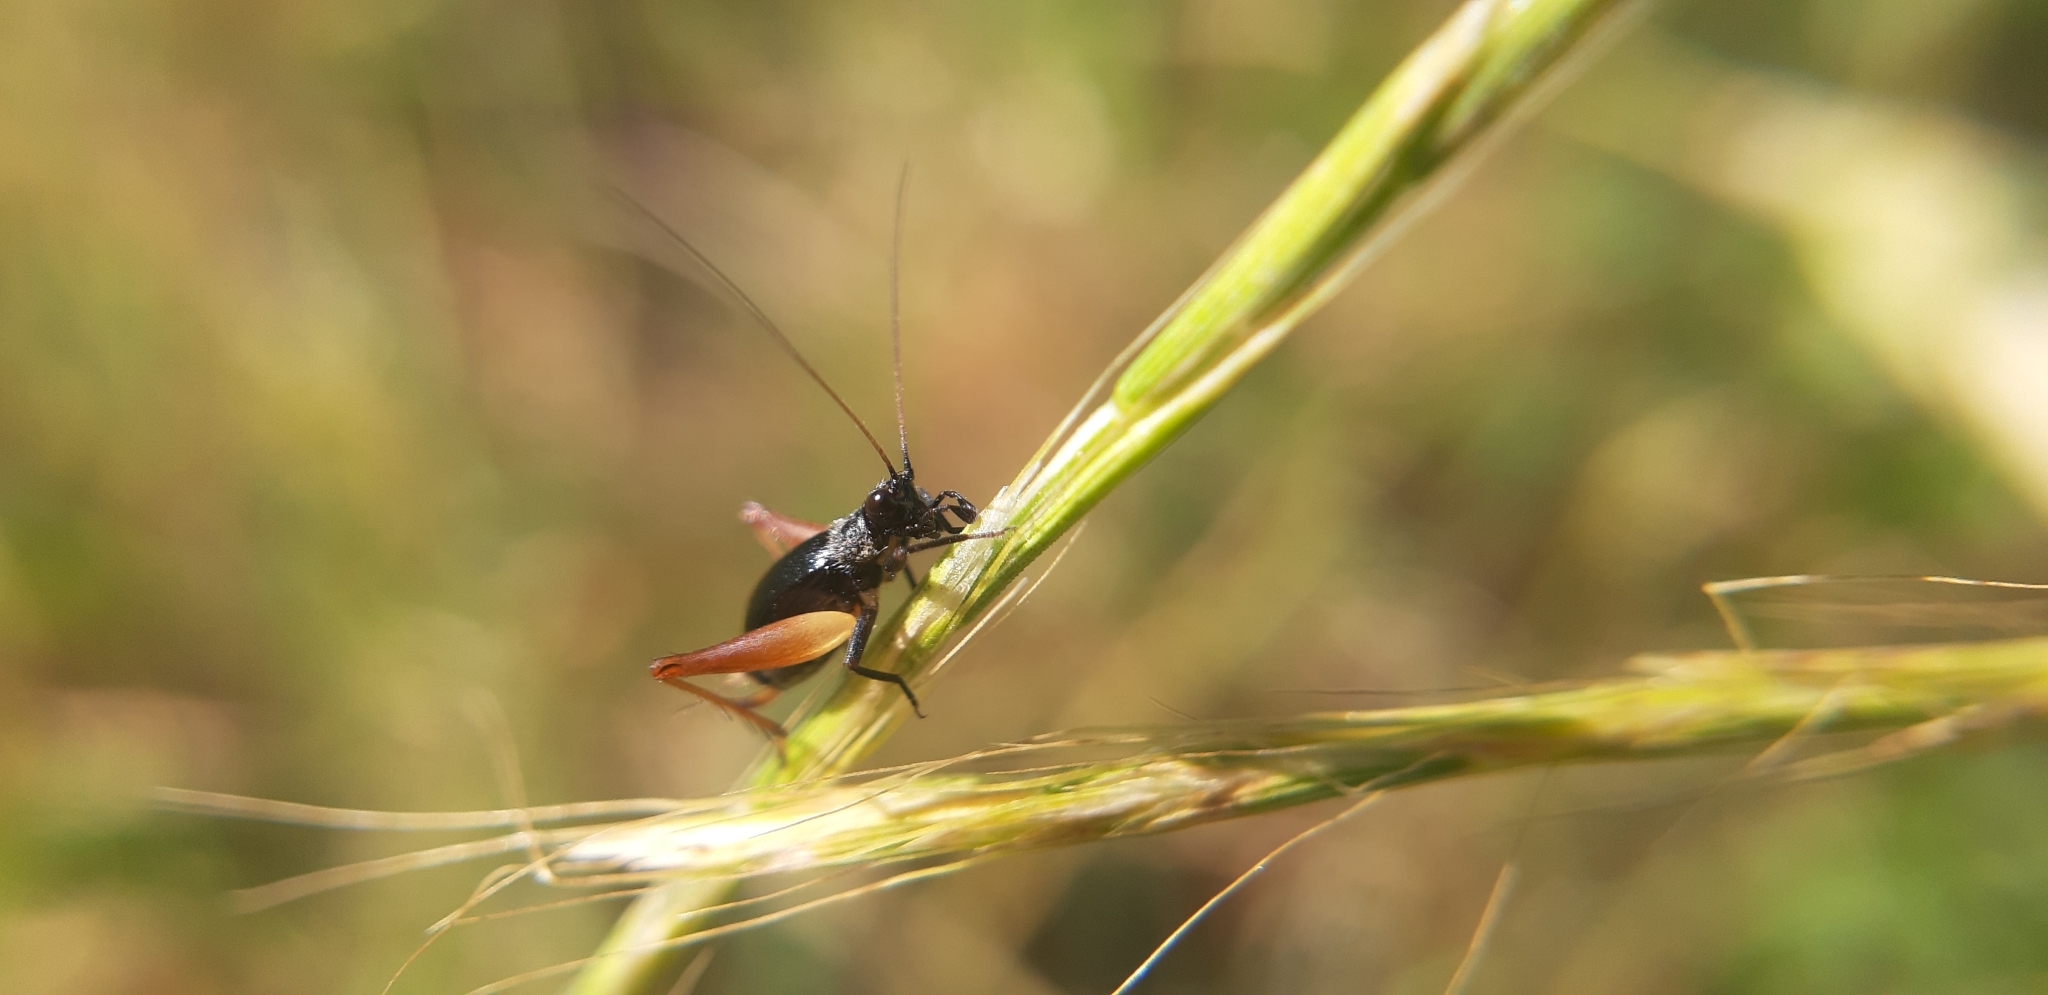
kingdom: Animalia
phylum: Arthropoda
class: Insecta
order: Orthoptera
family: Trigonidiidae
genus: Trigonidium
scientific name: Trigonidium cicindeloides
